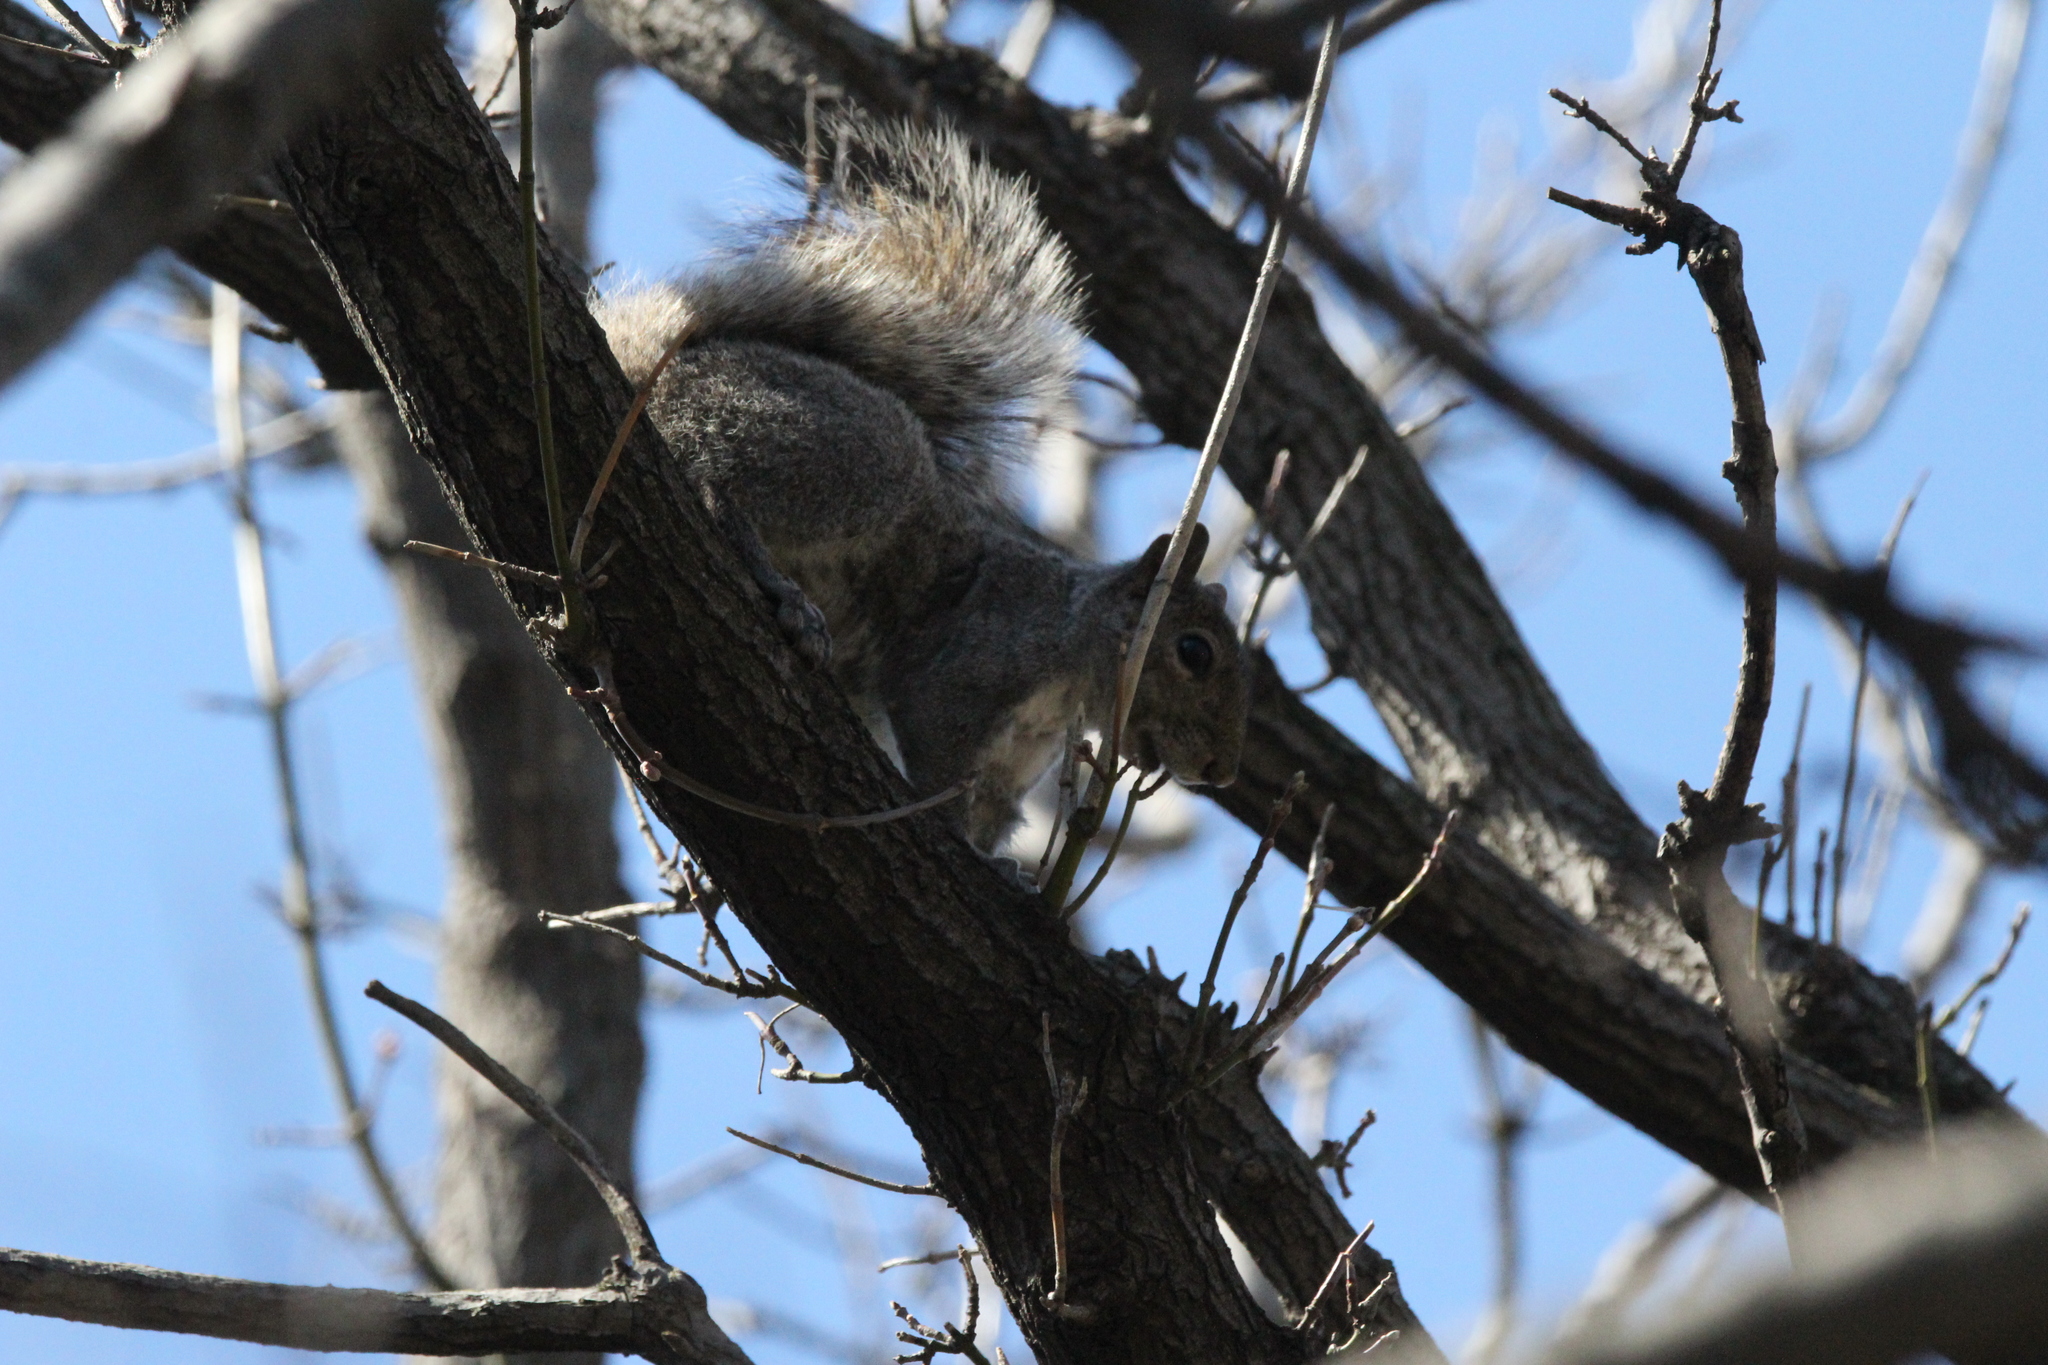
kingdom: Animalia
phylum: Chordata
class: Mammalia
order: Rodentia
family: Sciuridae
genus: Sciurus
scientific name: Sciurus carolinensis
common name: Eastern gray squirrel
